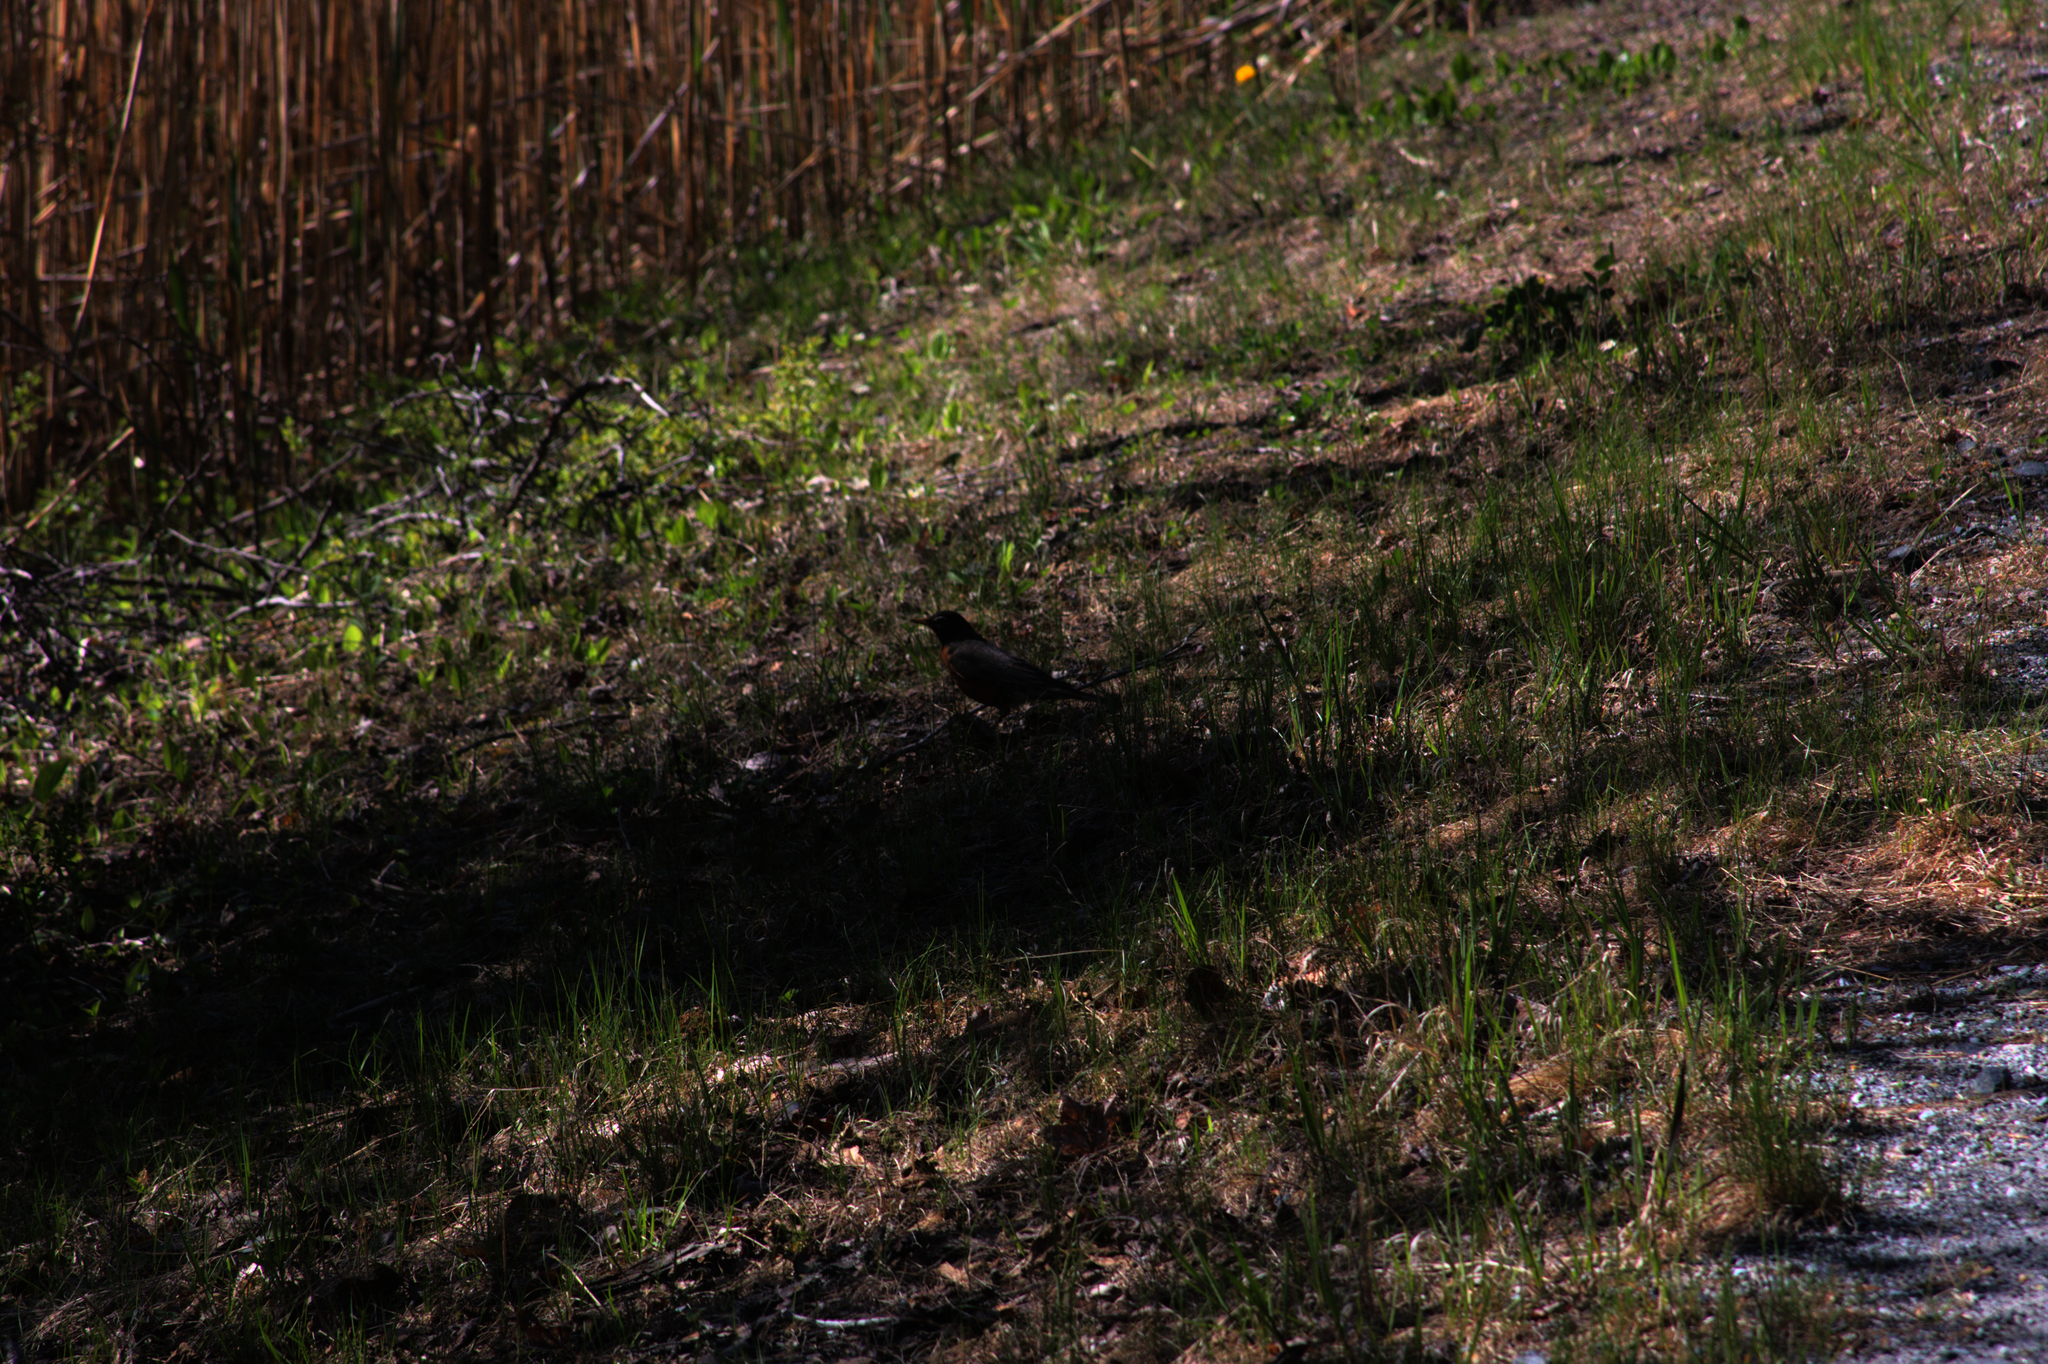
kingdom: Animalia
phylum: Chordata
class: Aves
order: Passeriformes
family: Turdidae
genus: Turdus
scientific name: Turdus migratorius
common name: American robin
